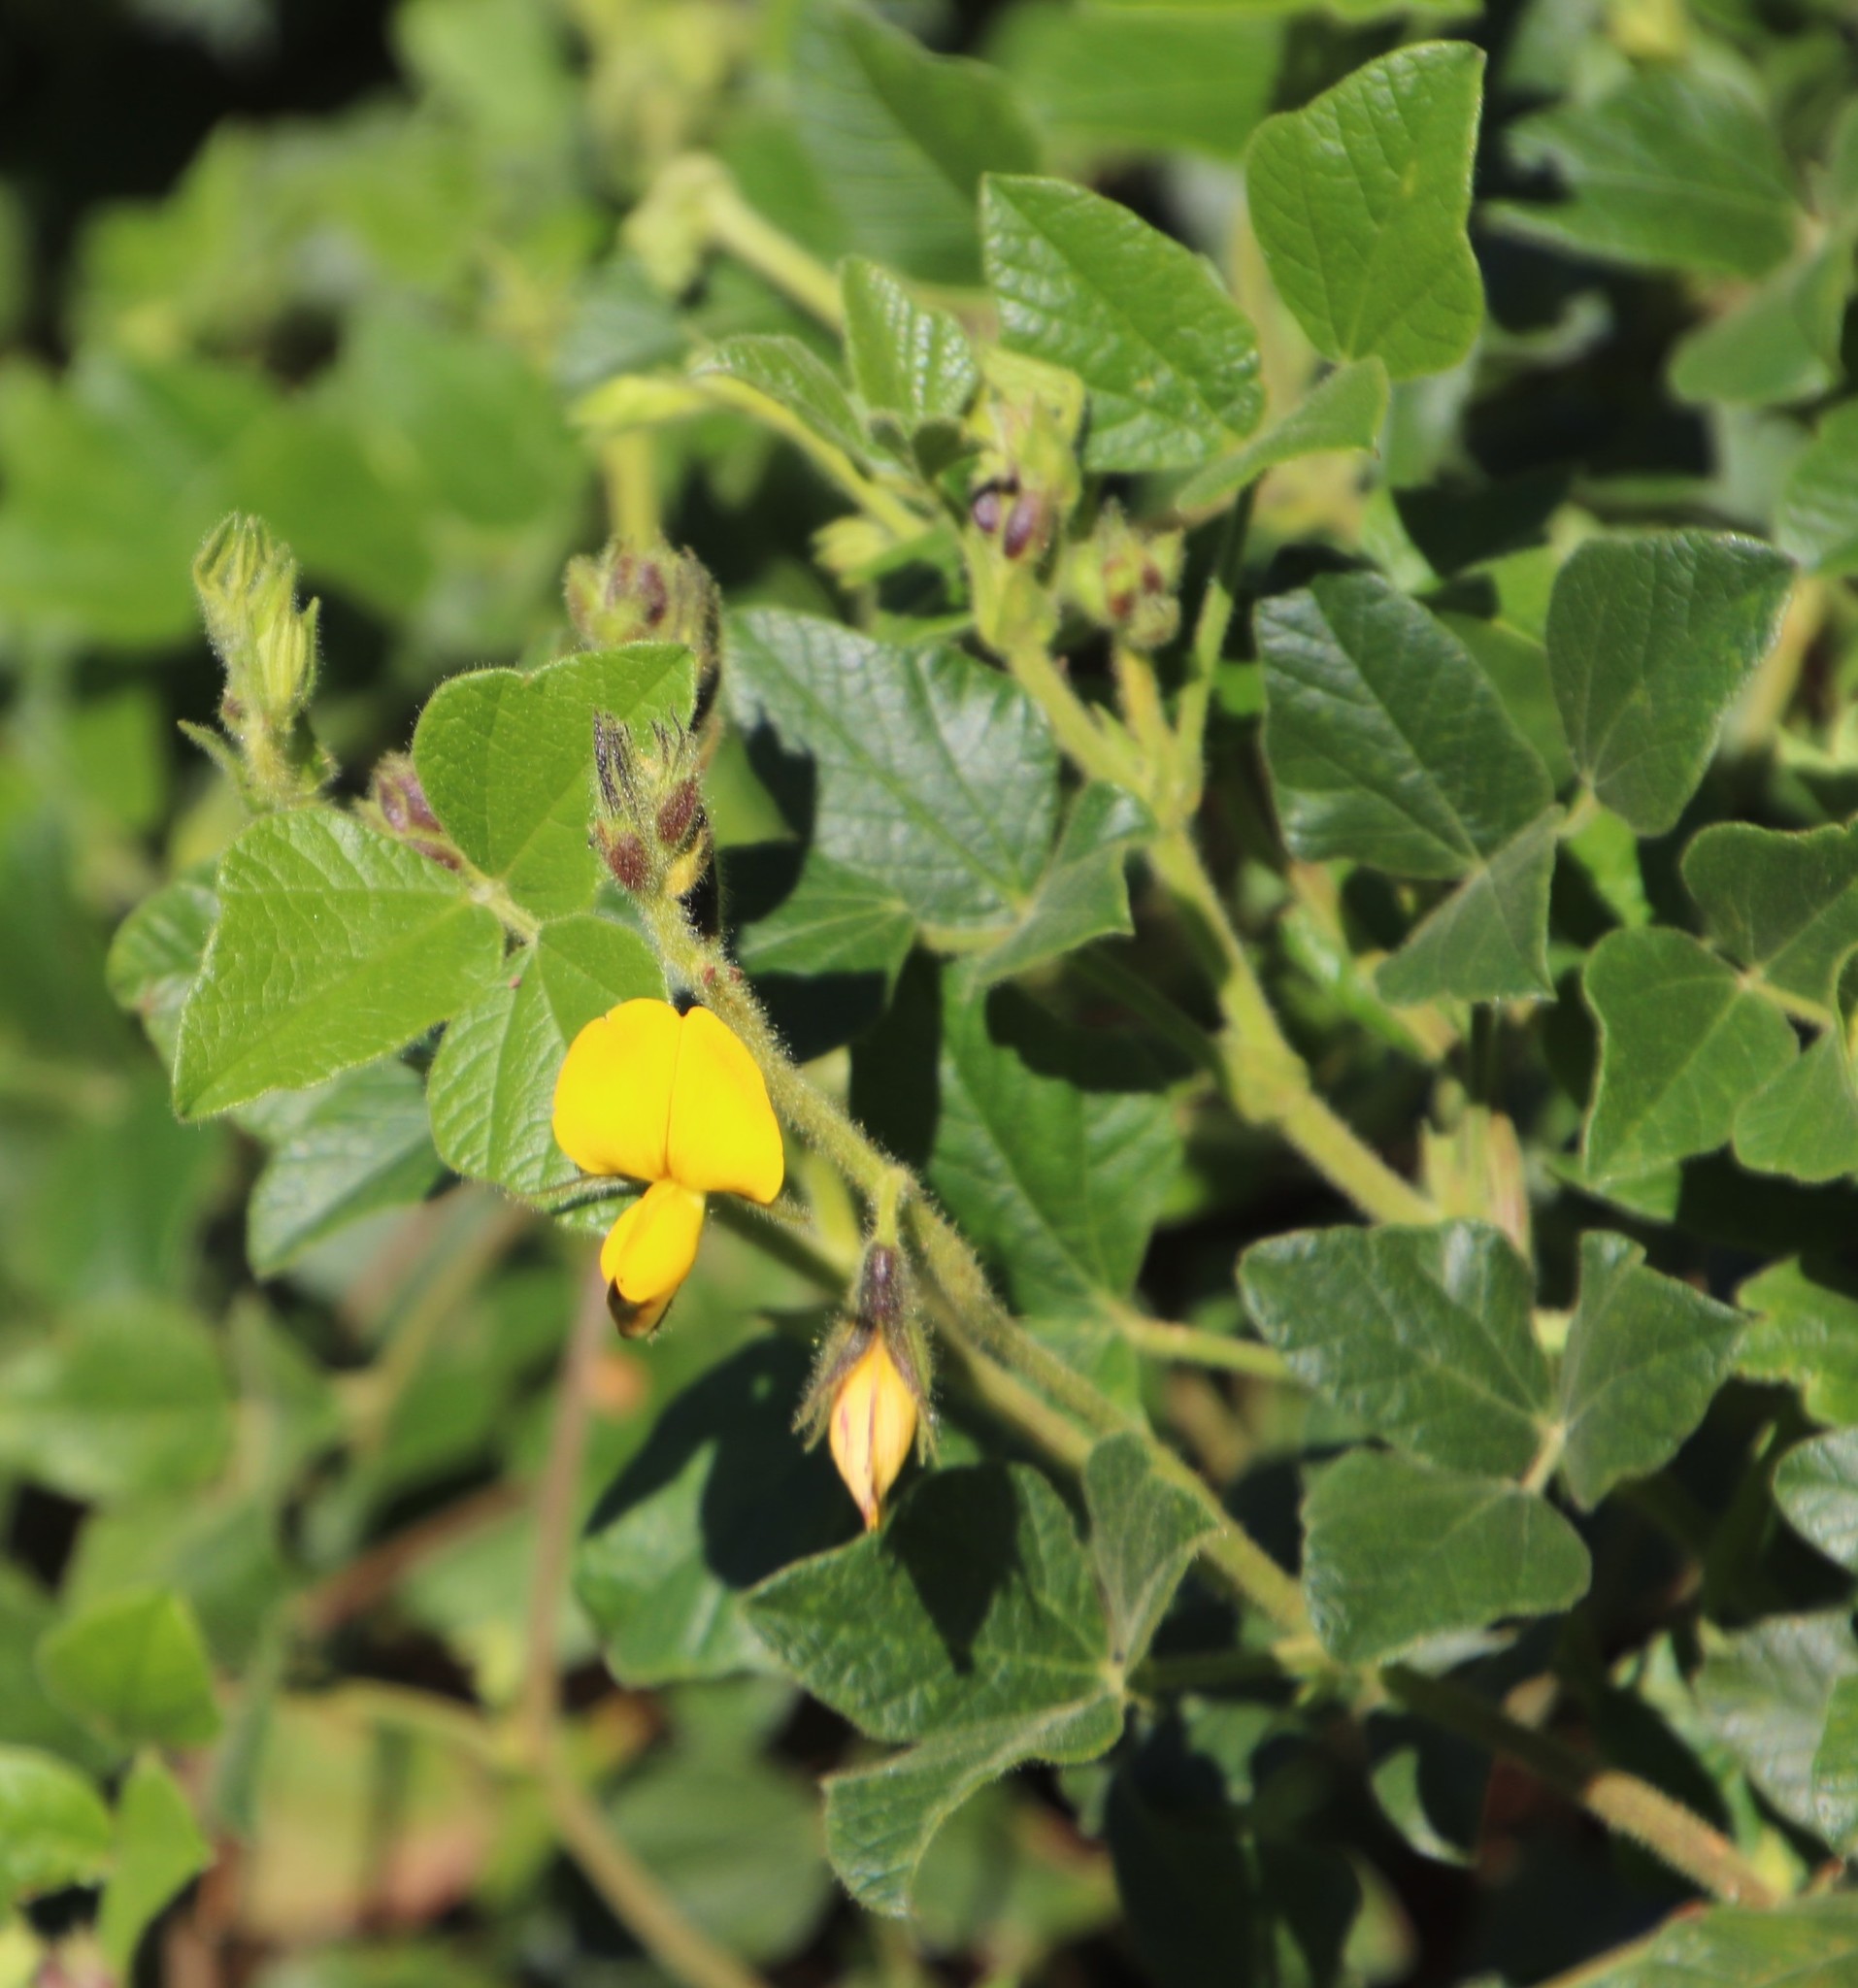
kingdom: Plantae
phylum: Tracheophyta
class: Magnoliopsida
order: Fabales
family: Fabaceae
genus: Bolusafra
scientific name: Bolusafra bituminosa
